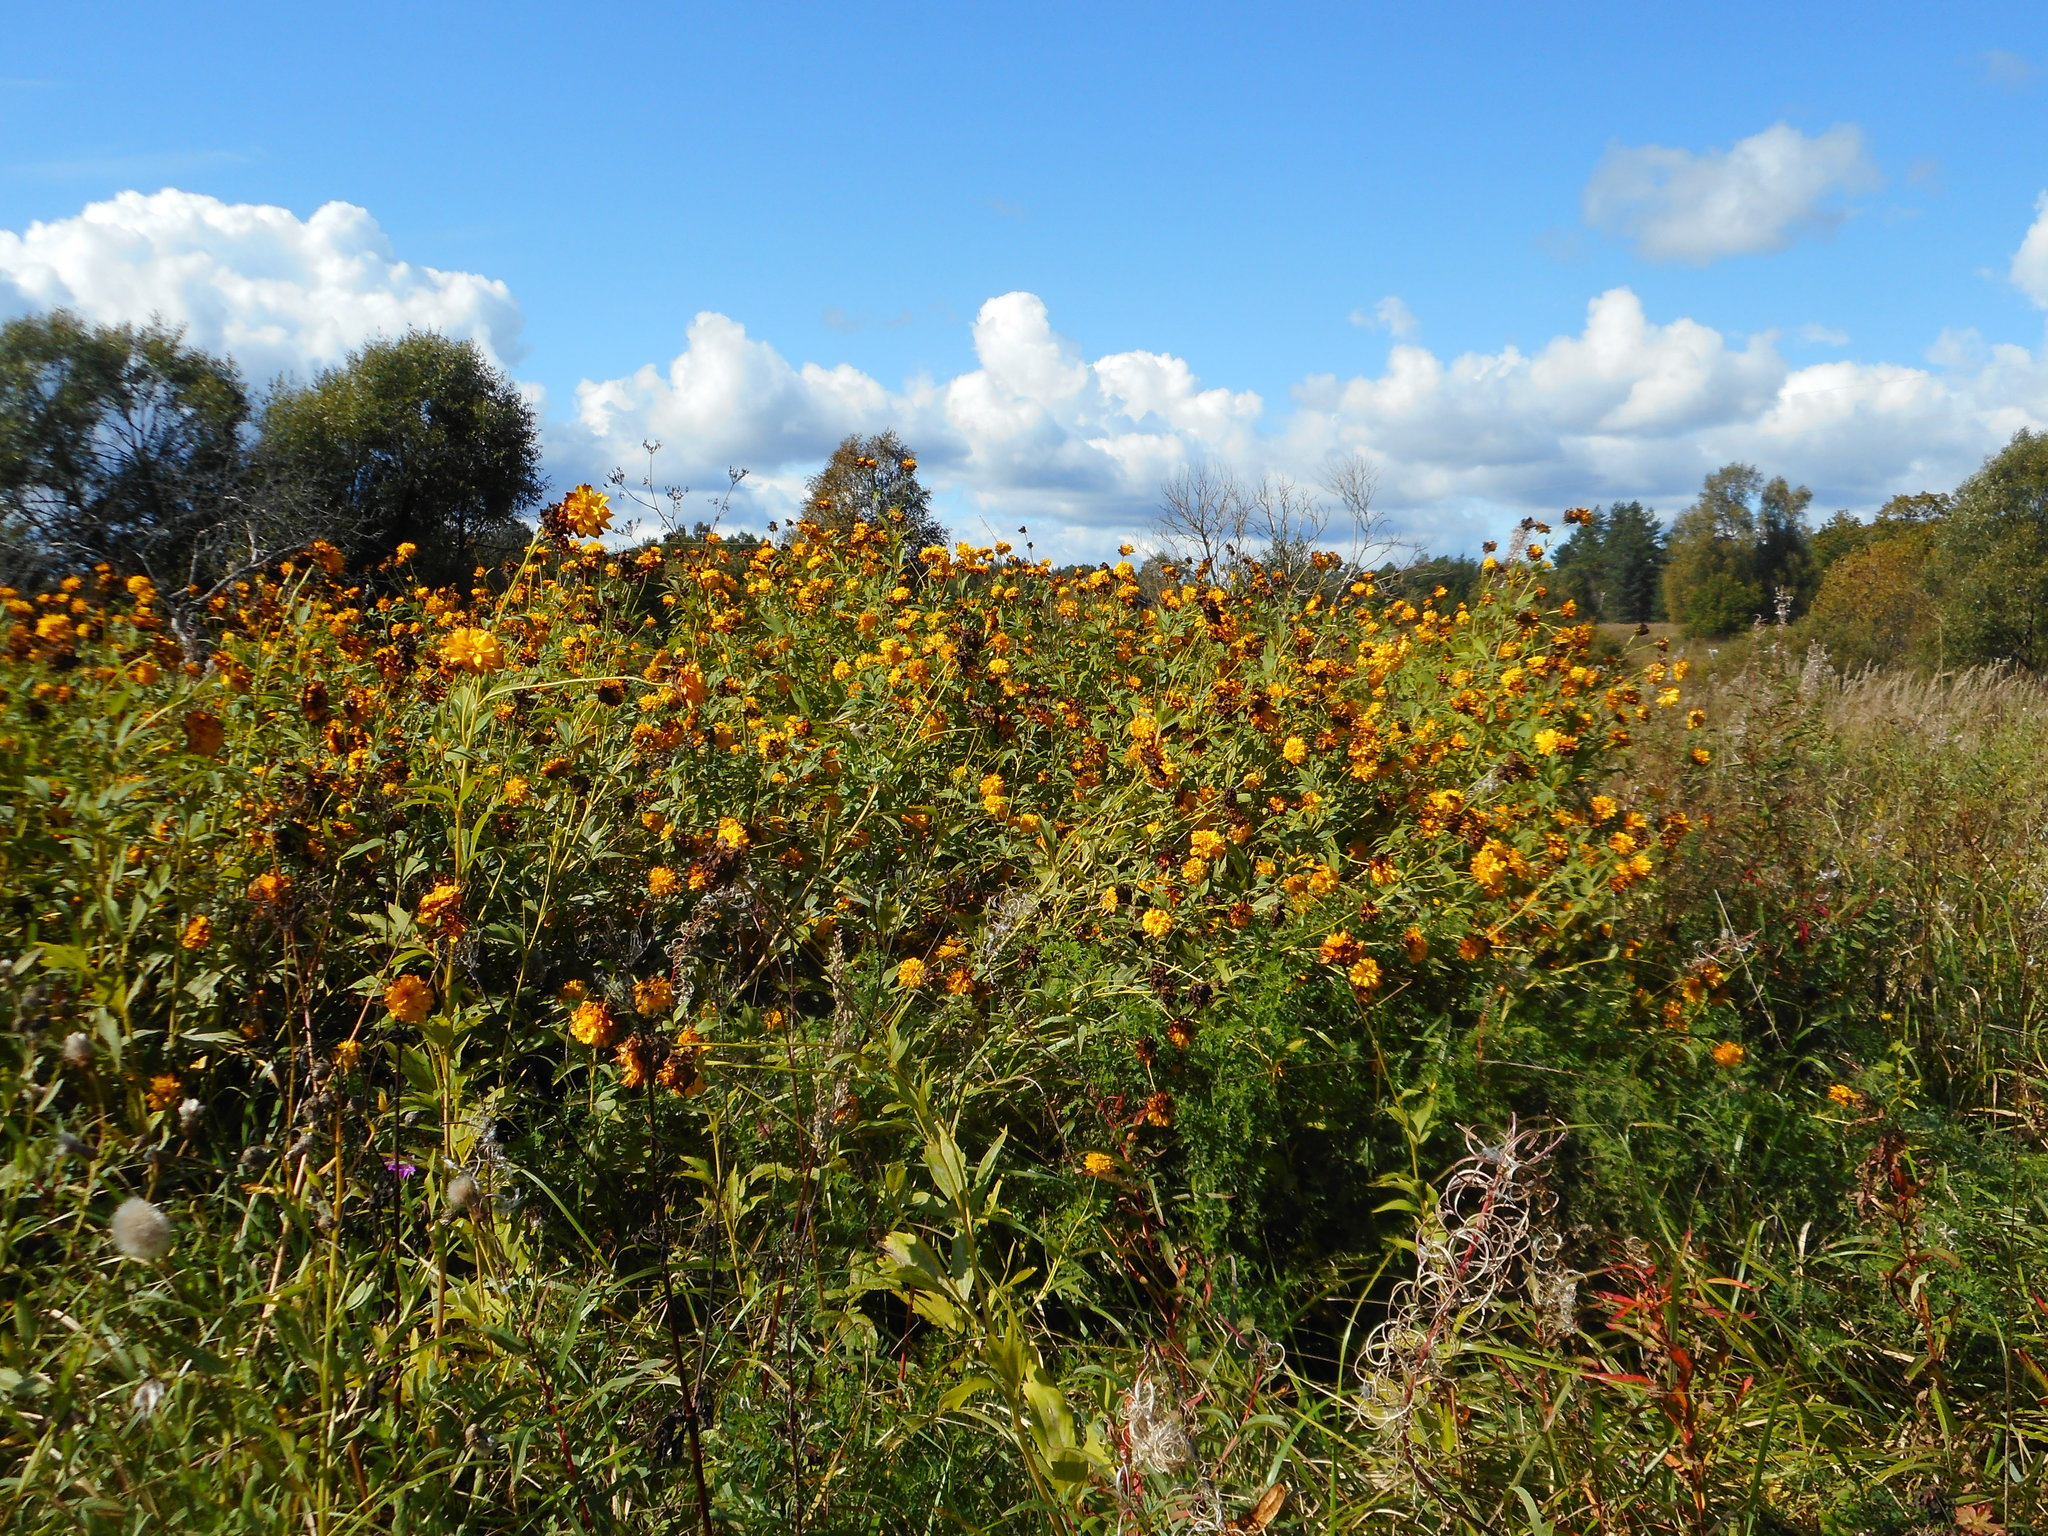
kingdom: Plantae
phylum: Tracheophyta
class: Magnoliopsida
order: Asterales
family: Asteraceae
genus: Rudbeckia
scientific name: Rudbeckia laciniata
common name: Coneflower
